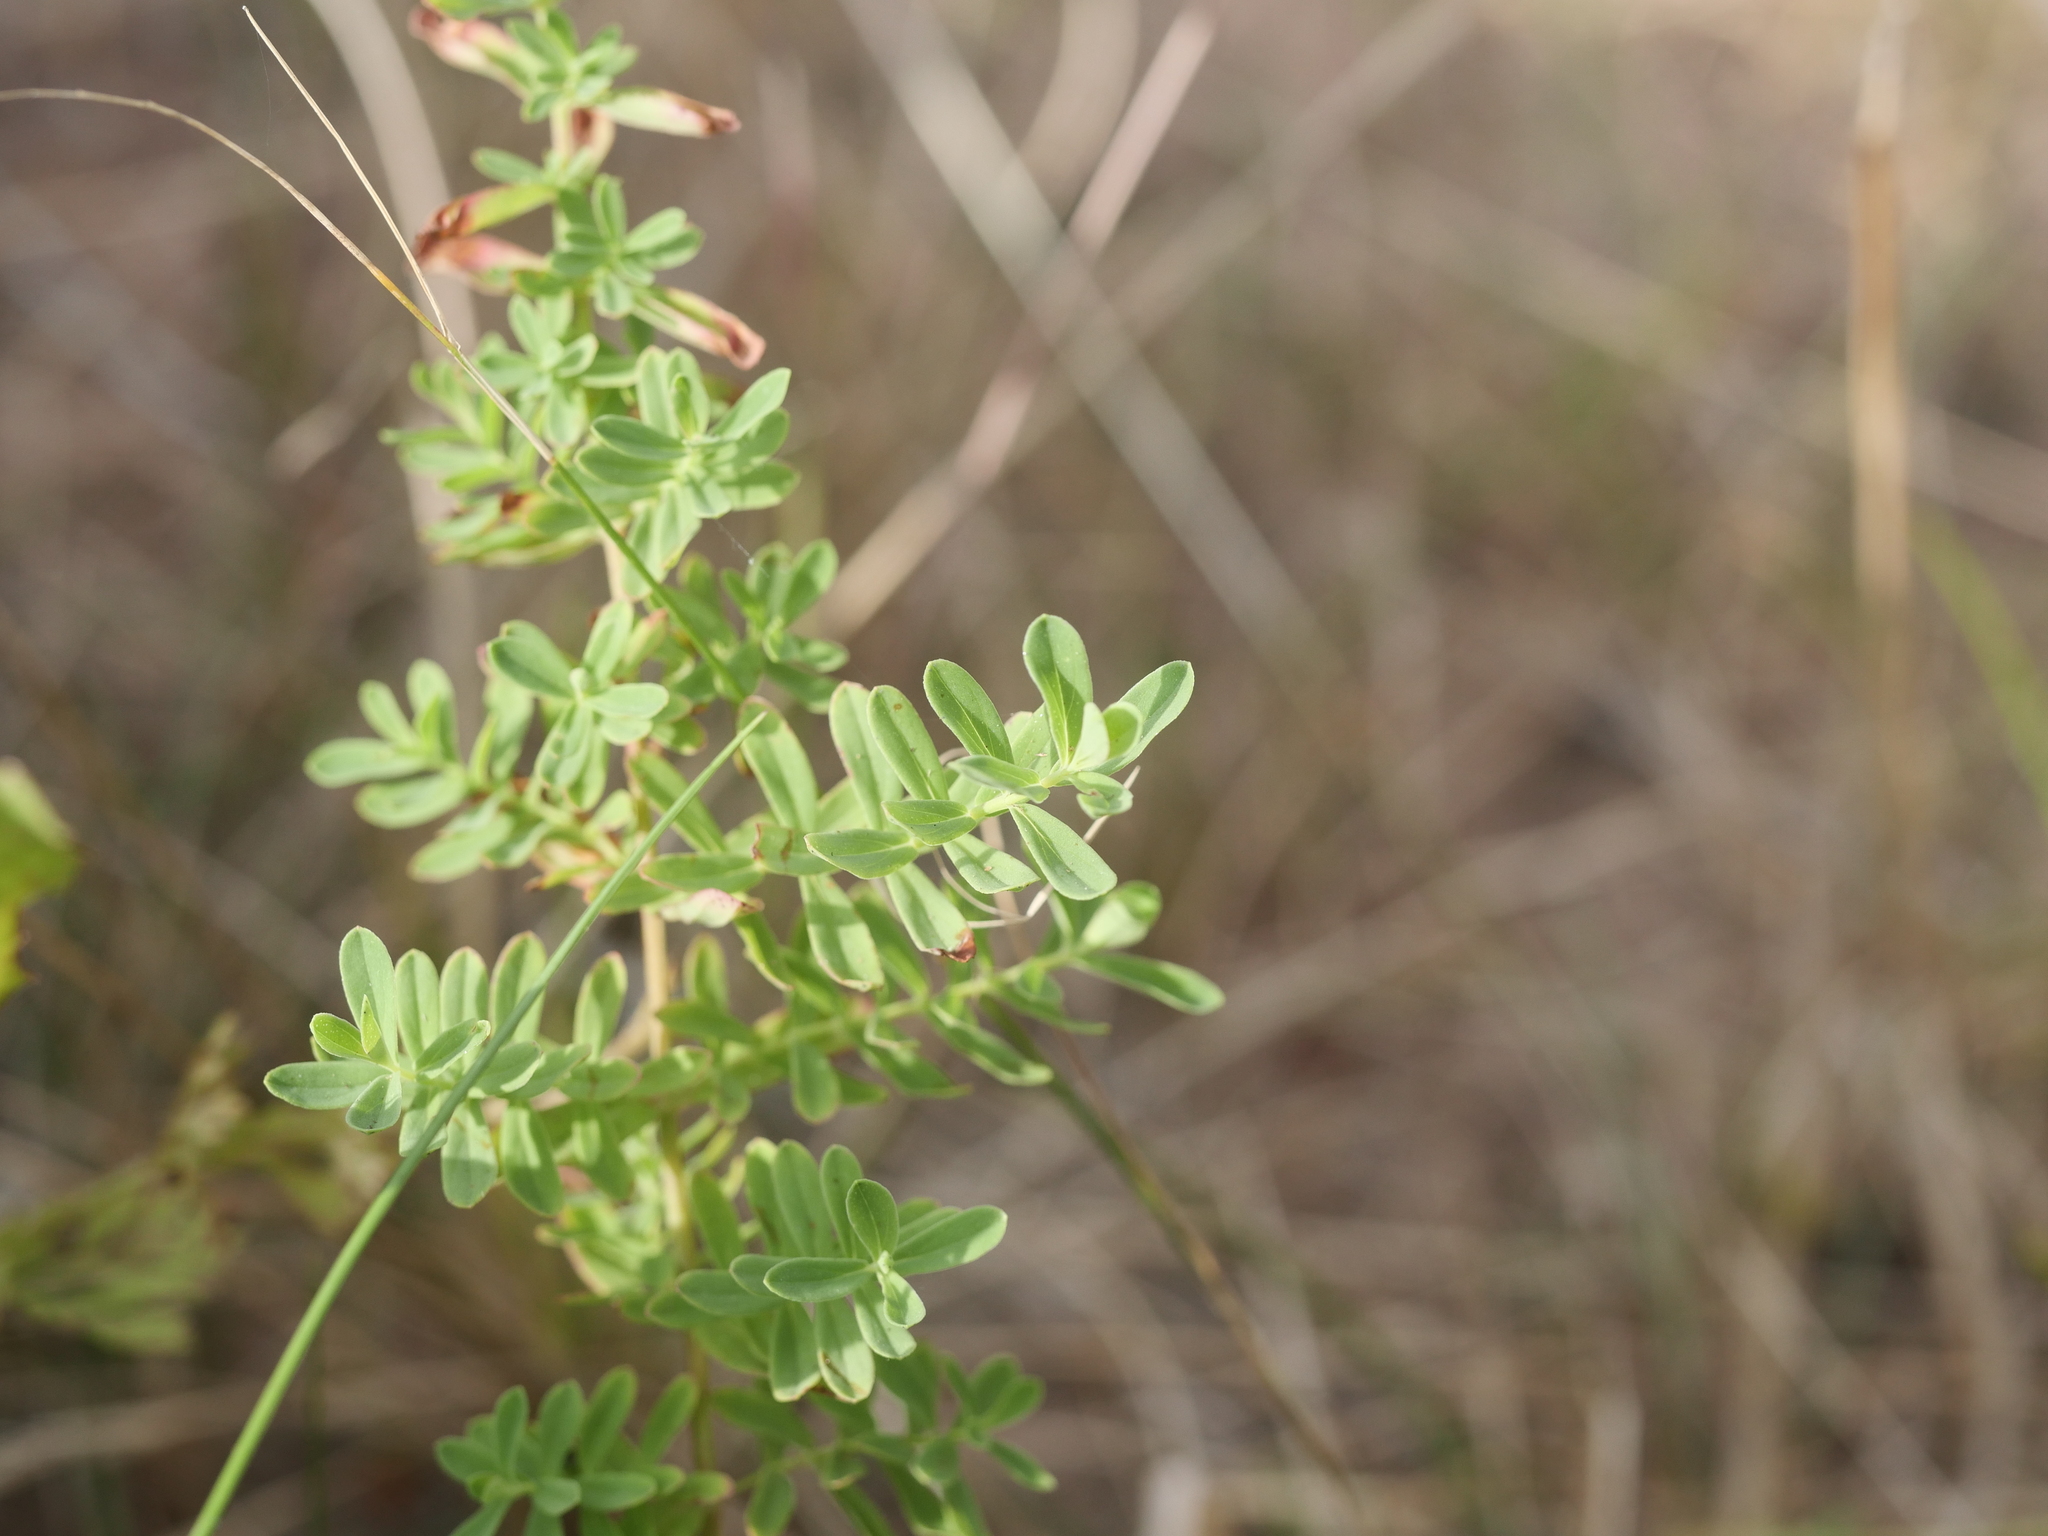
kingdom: Plantae
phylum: Tracheophyta
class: Magnoliopsida
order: Malpighiales
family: Hypericaceae
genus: Hypericum
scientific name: Hypericum perforatum
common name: Common st. johnswort
